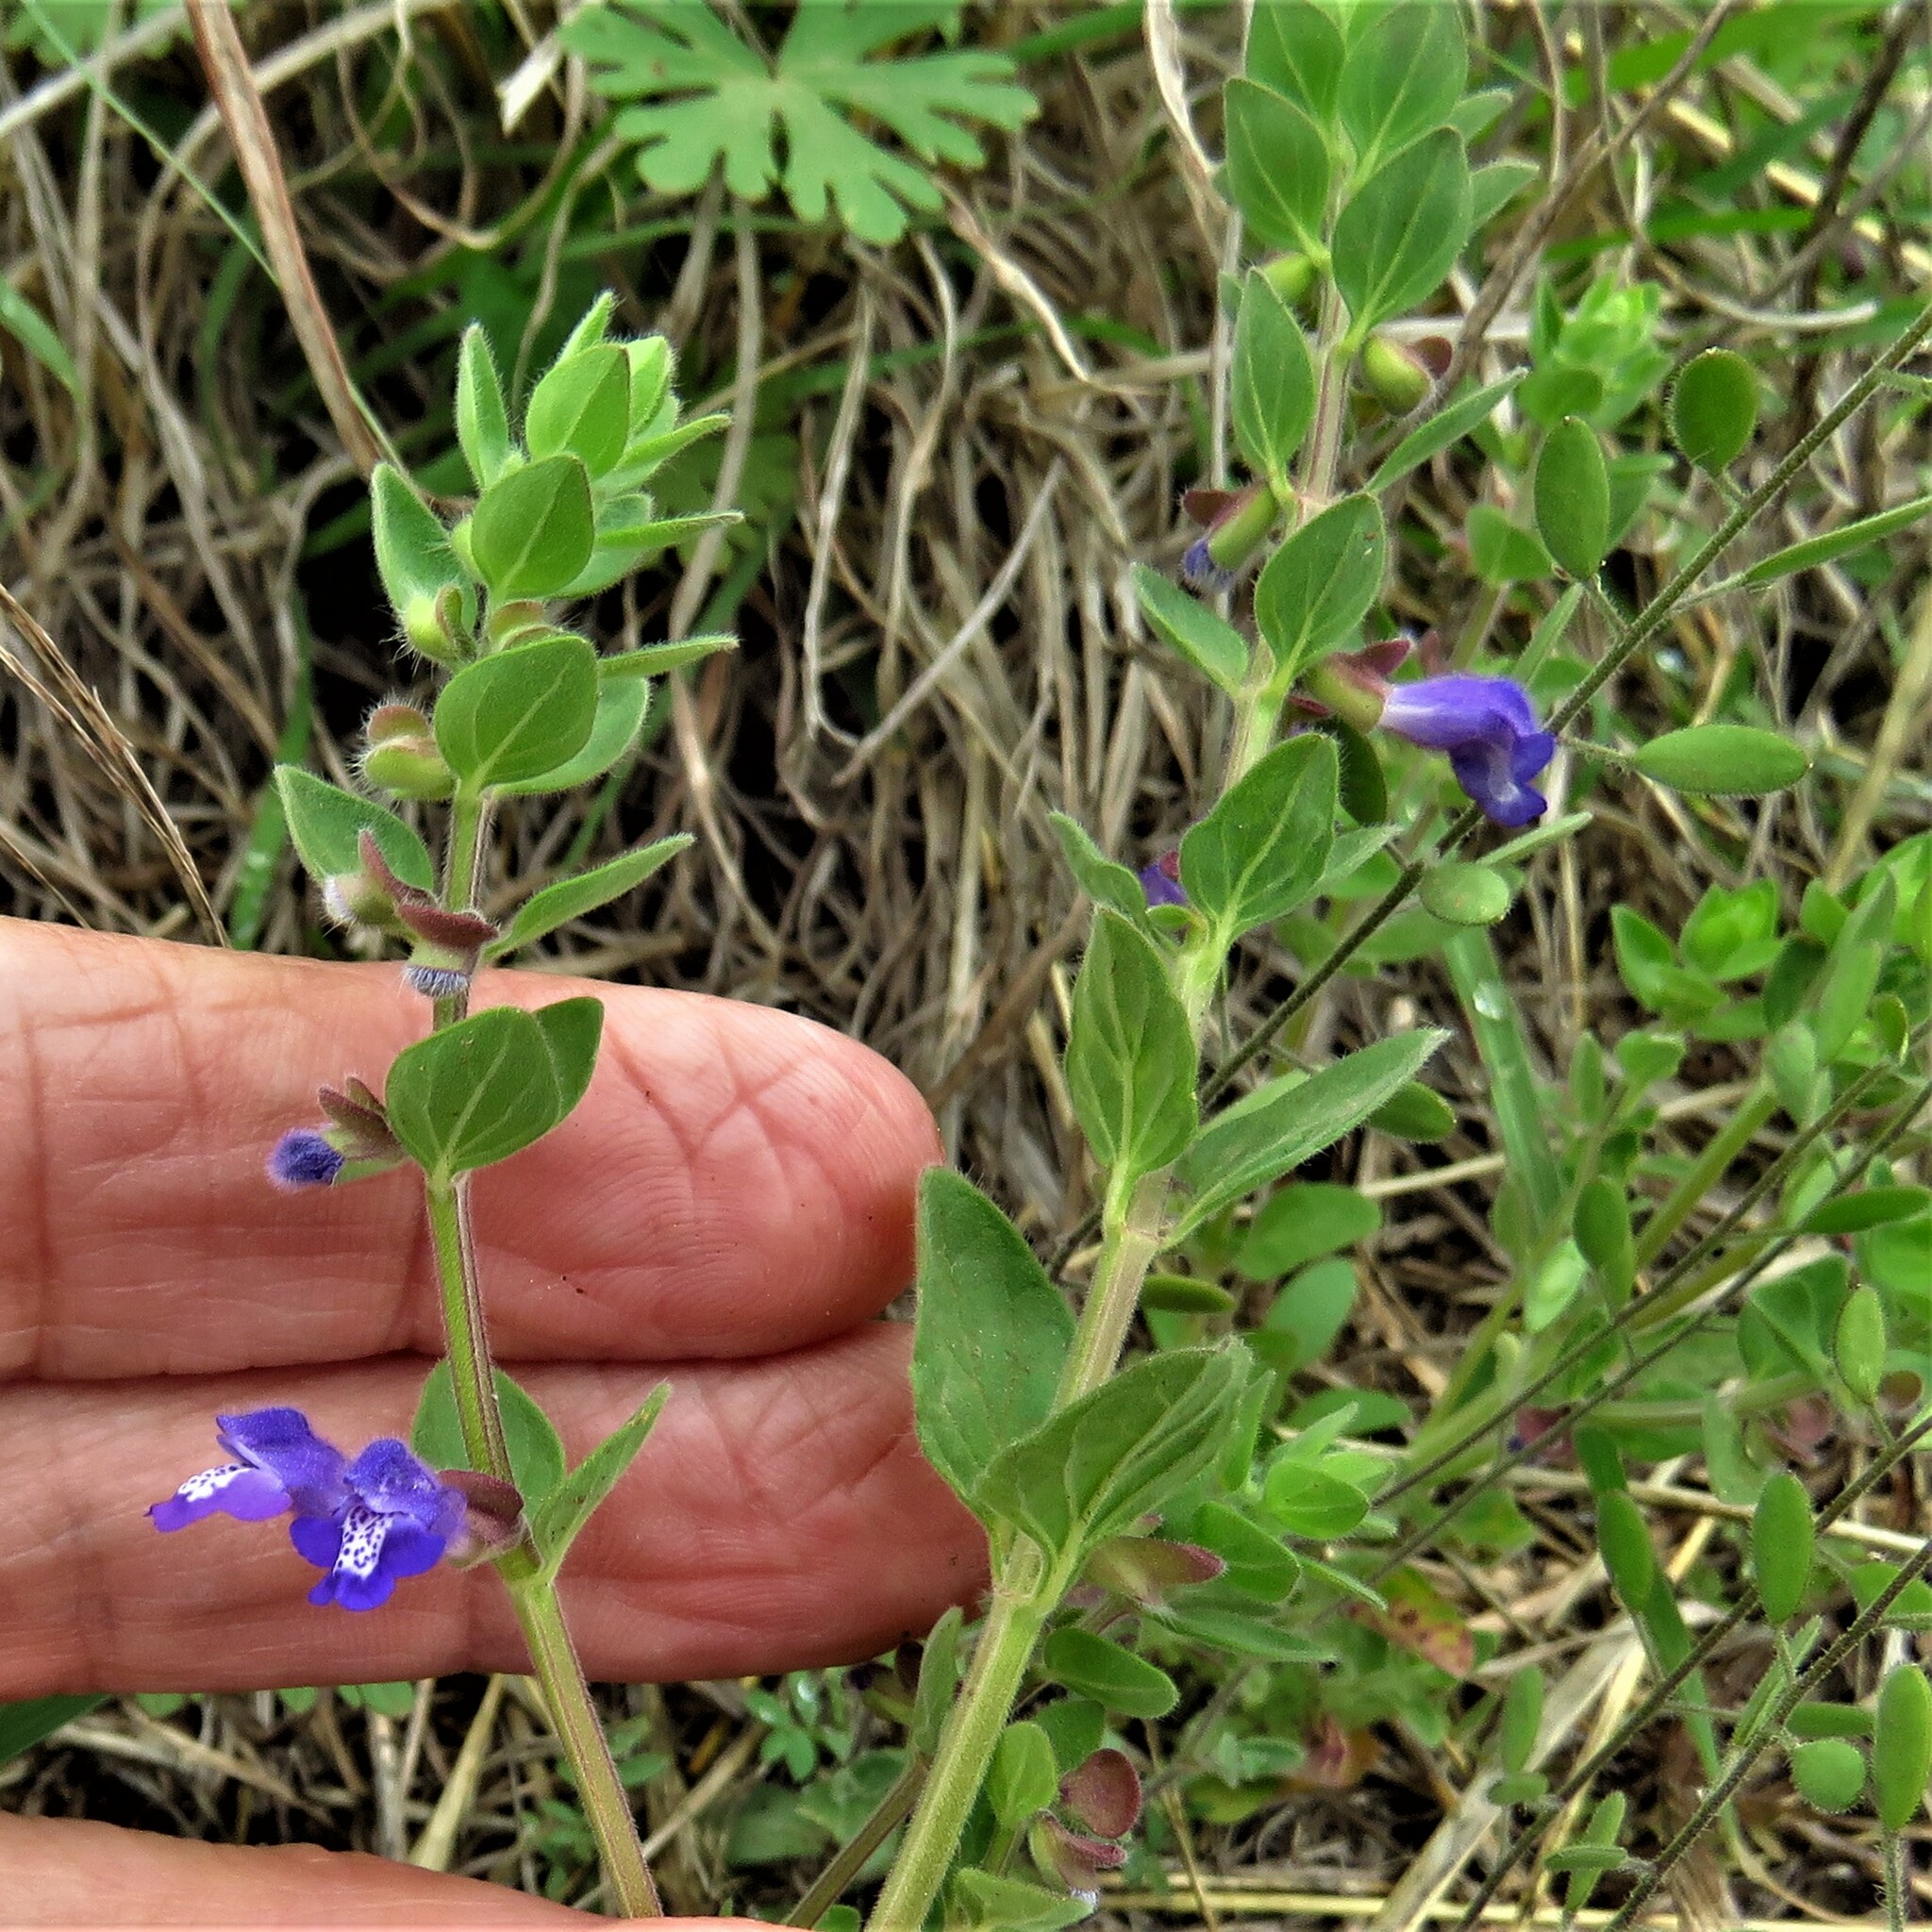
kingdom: Plantae
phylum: Tracheophyta
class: Magnoliopsida
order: Lamiales
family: Lamiaceae
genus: Scutellaria
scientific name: Scutellaria drummondii
